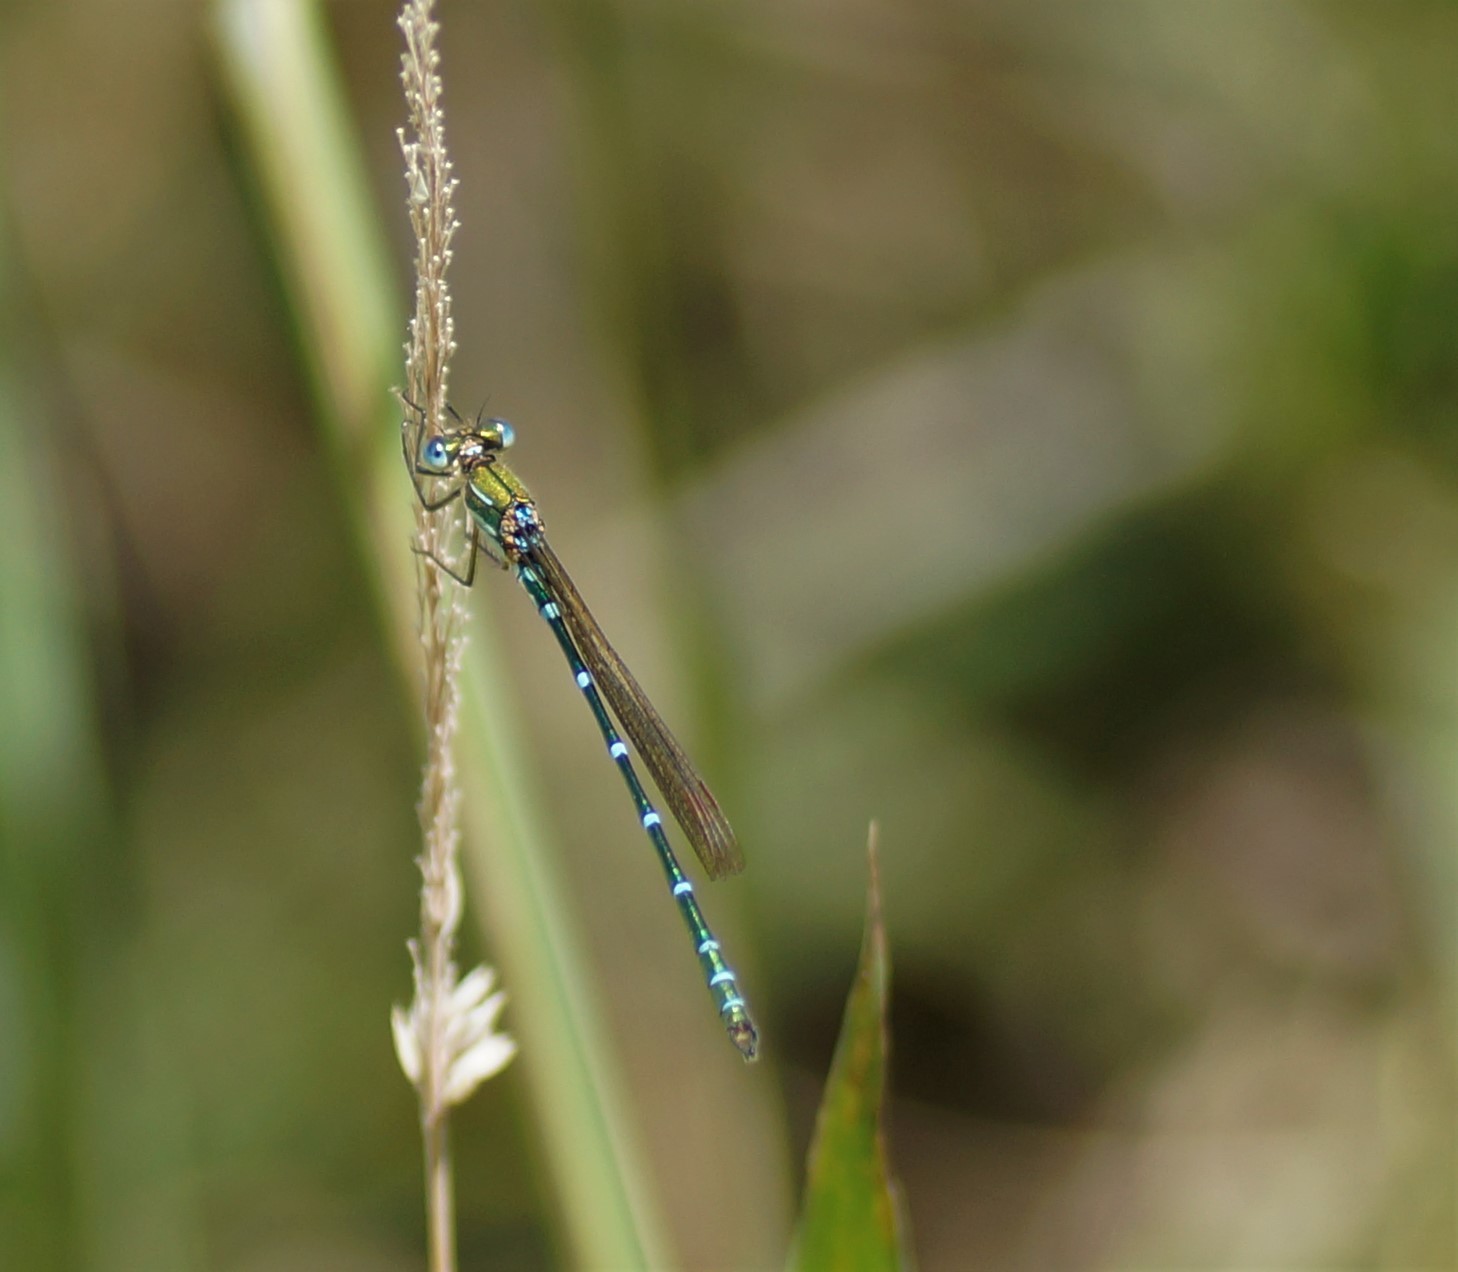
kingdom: Animalia
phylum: Arthropoda
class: Insecta
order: Odonata
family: Lestidae
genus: Austrolestes
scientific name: Austrolestes cingulatus
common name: Metallic ringtail
